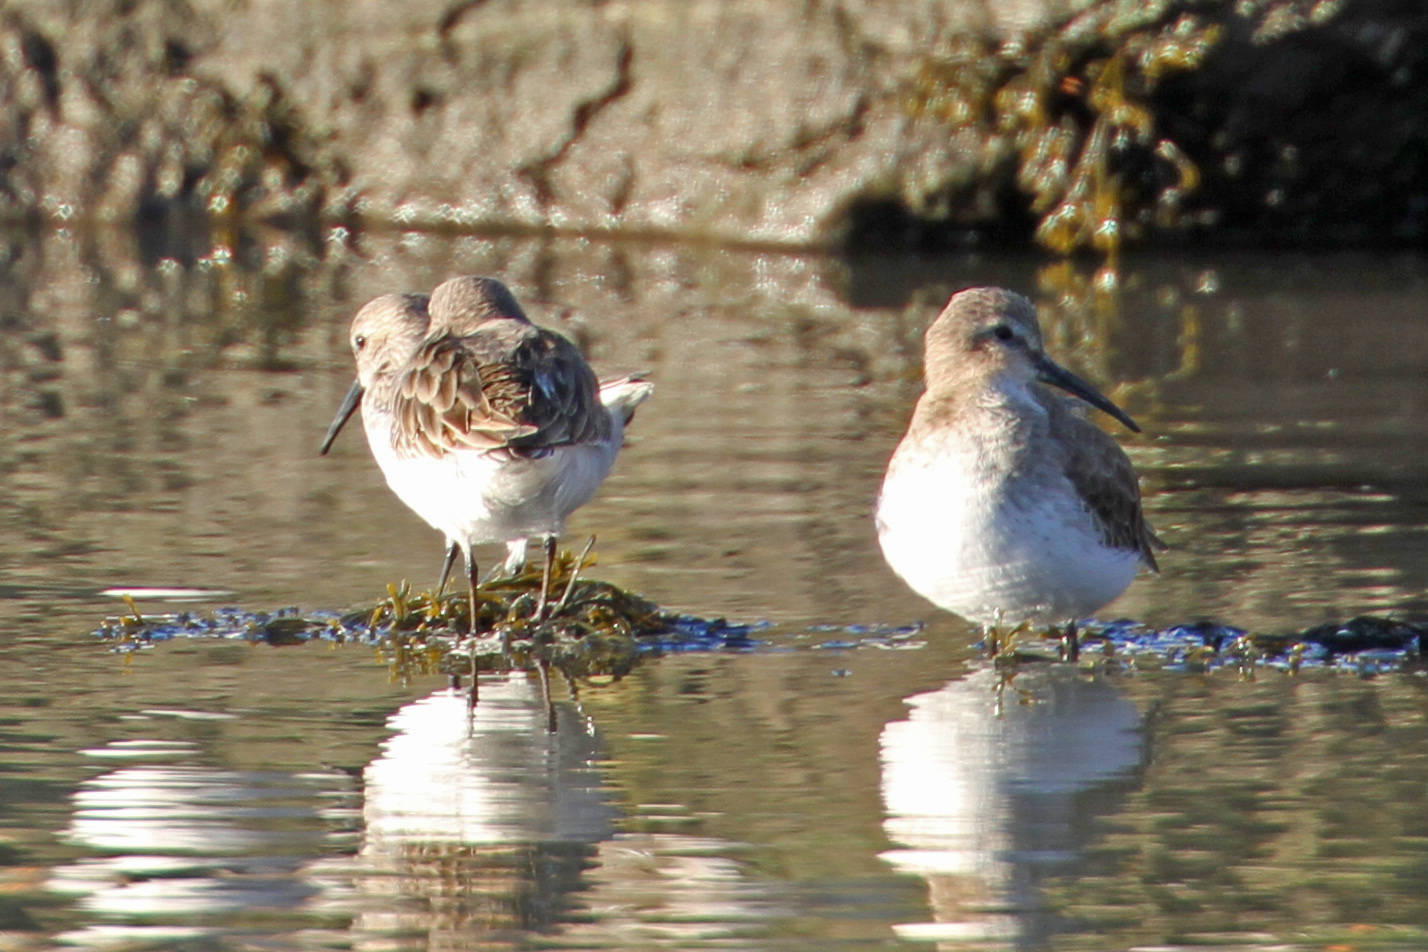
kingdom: Animalia
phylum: Chordata
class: Aves
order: Charadriiformes
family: Scolopacidae
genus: Calidris
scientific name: Calidris alpina
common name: Dunlin
